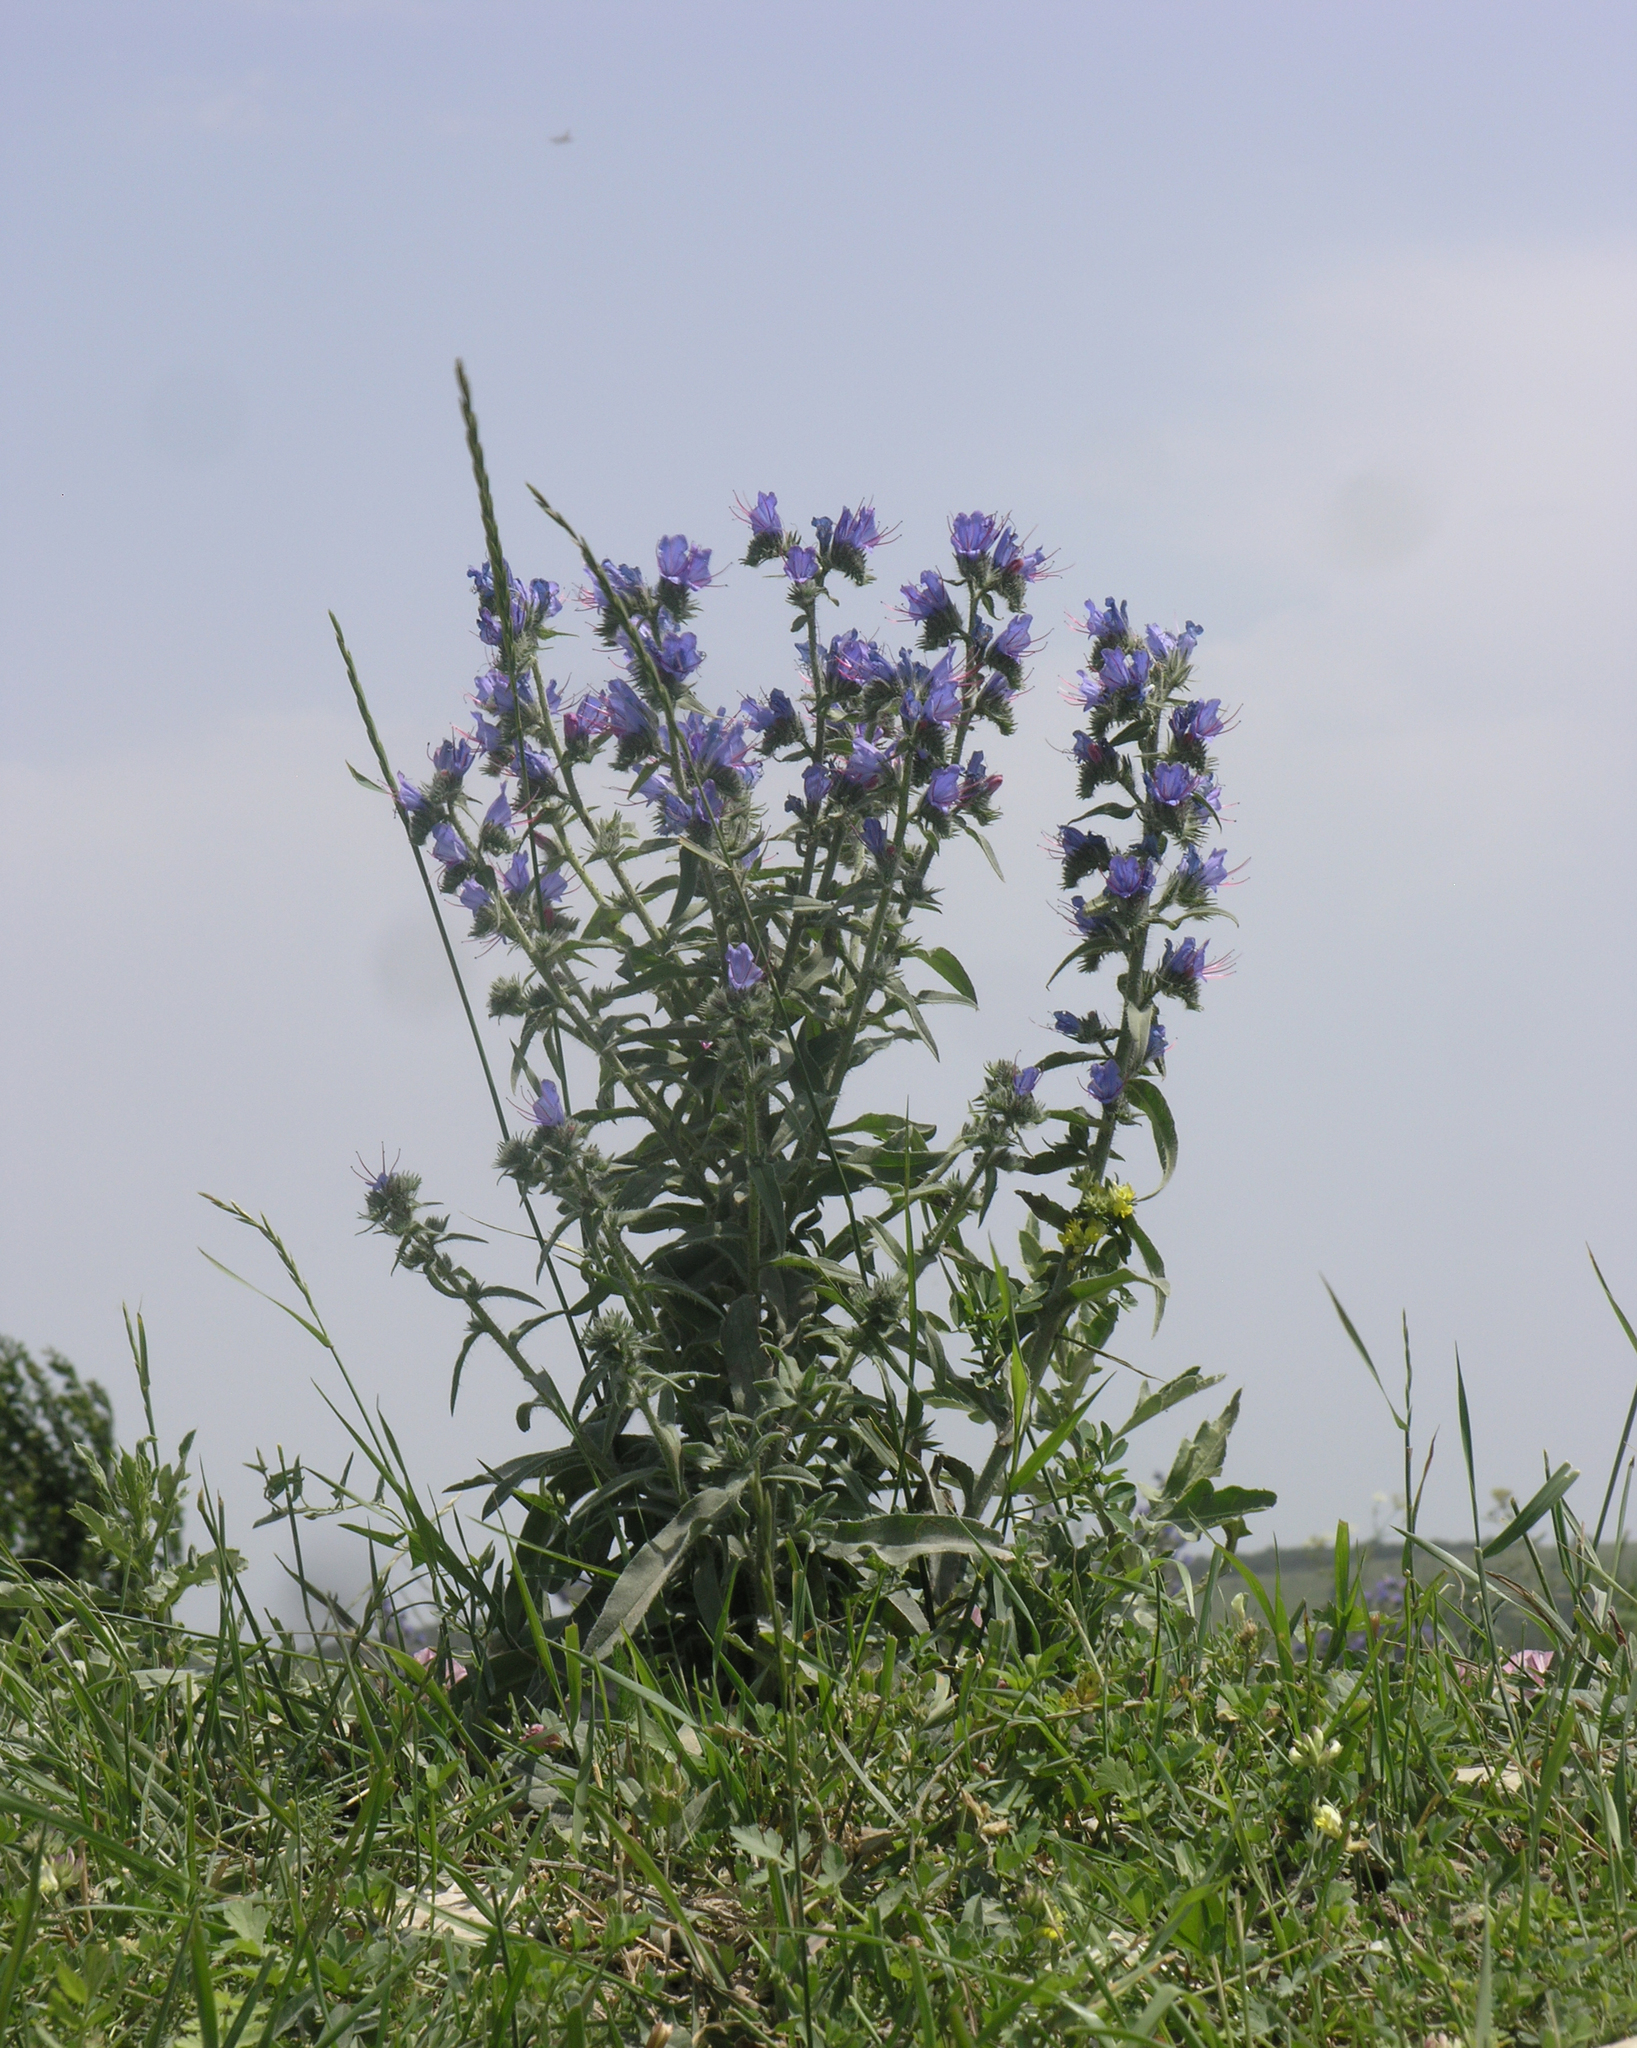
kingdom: Plantae
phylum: Tracheophyta
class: Magnoliopsida
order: Boraginales
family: Boraginaceae
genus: Echium
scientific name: Echium vulgare
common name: Common viper's bugloss
